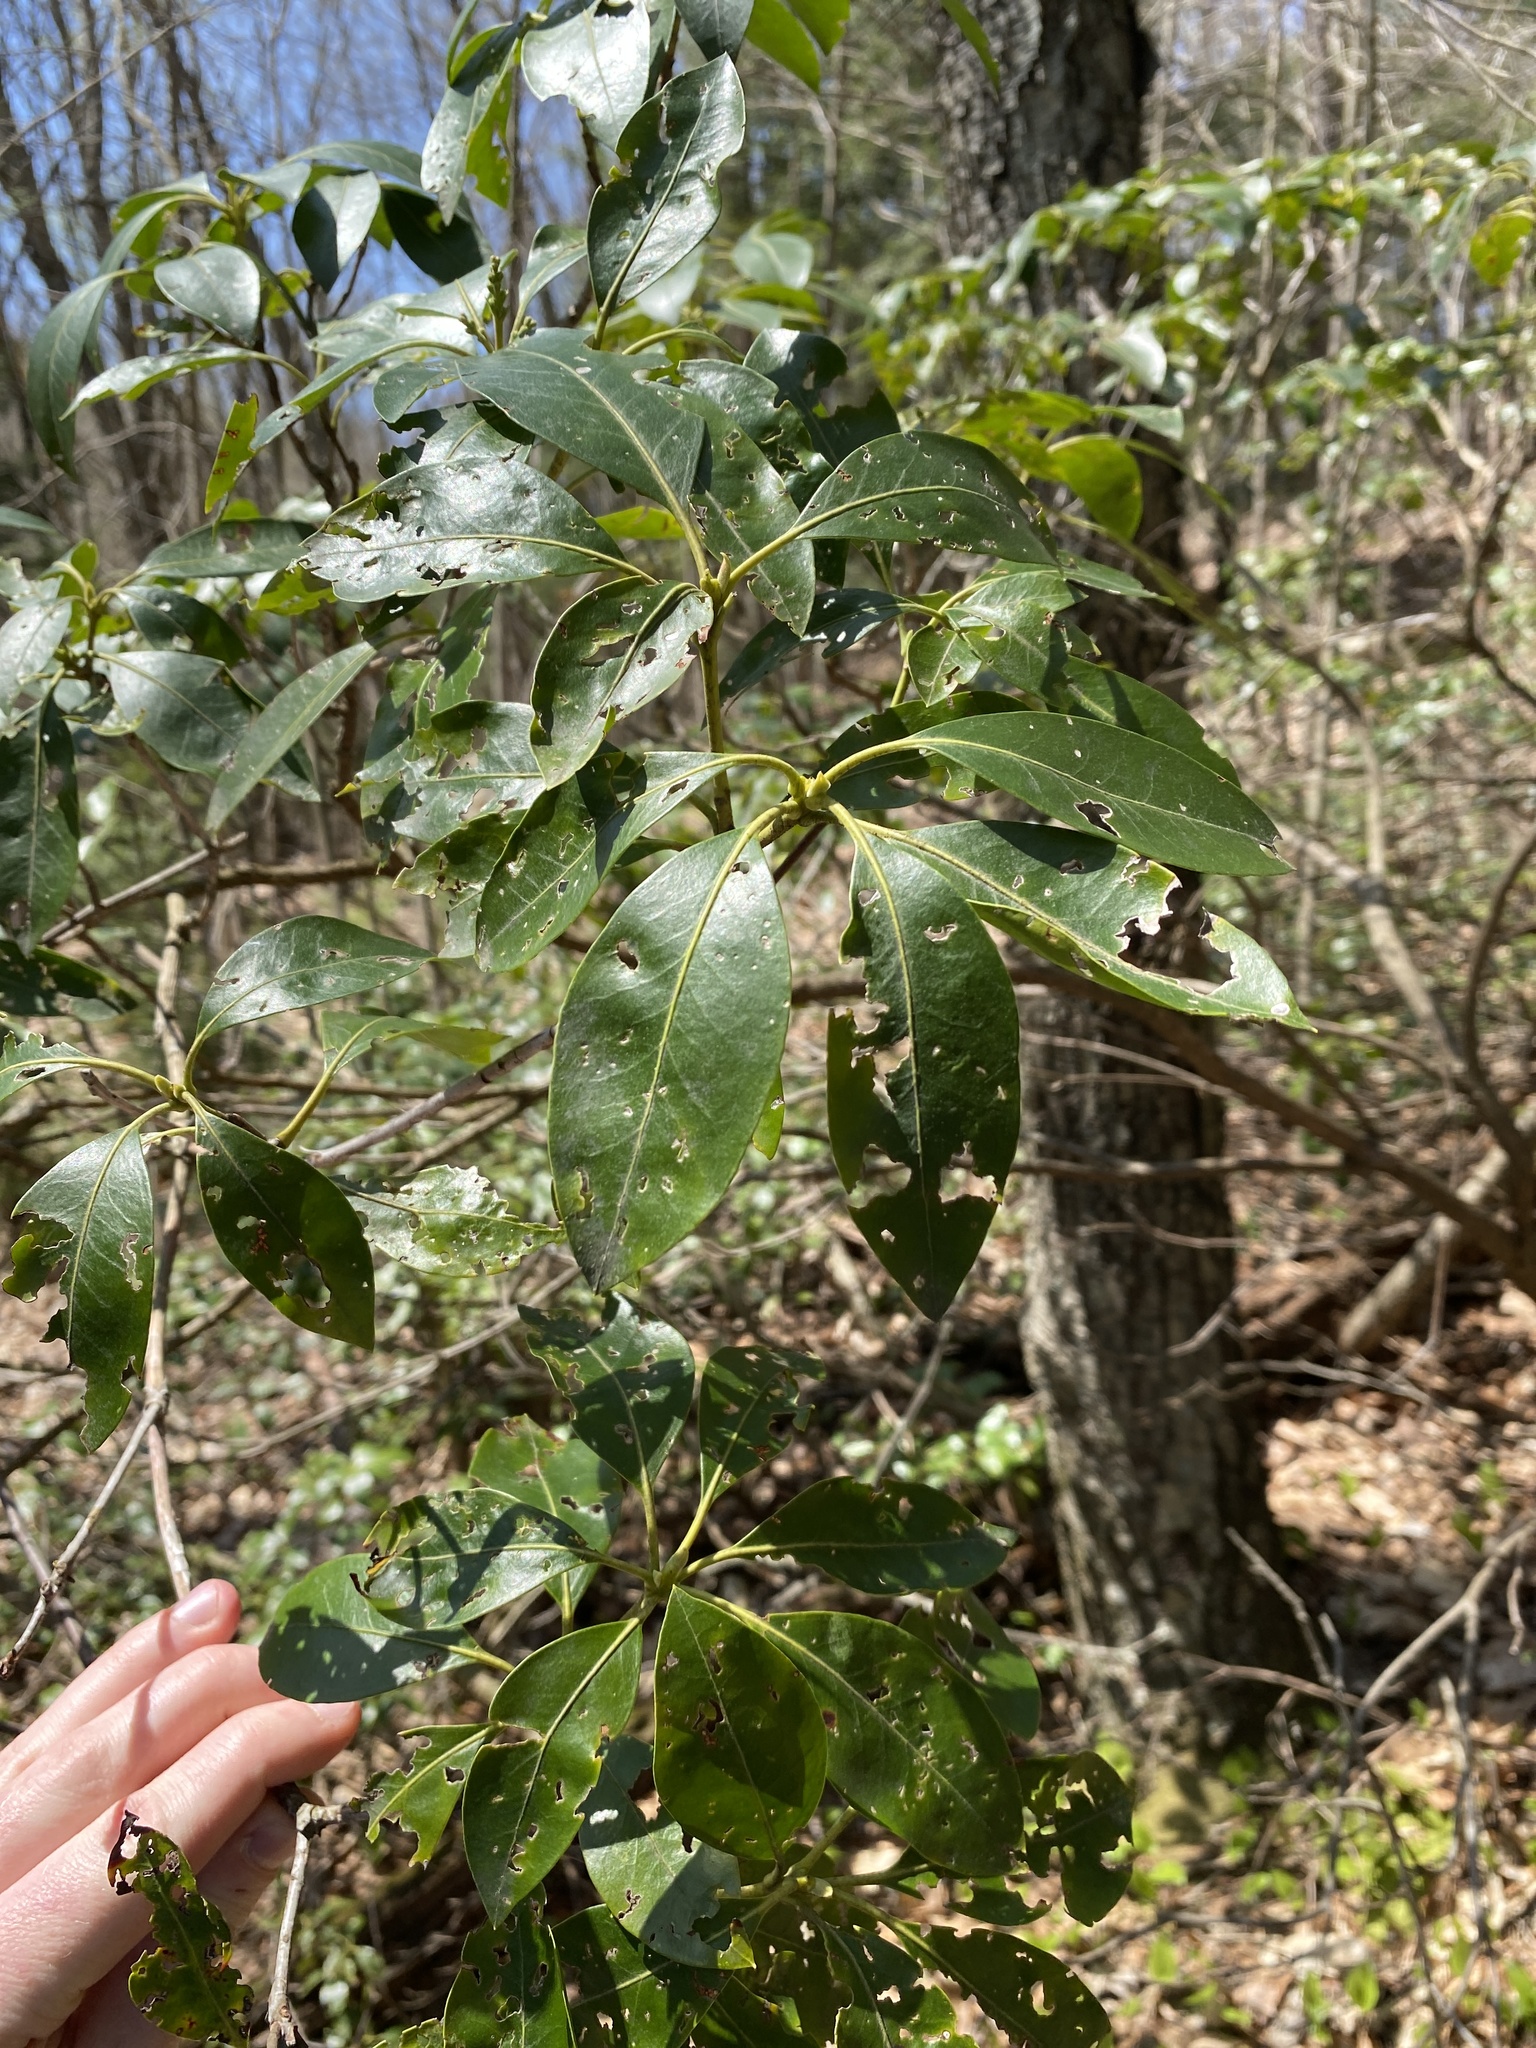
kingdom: Plantae
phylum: Tracheophyta
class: Magnoliopsida
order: Ericales
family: Ericaceae
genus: Kalmia
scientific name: Kalmia latifolia
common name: Mountain-laurel
